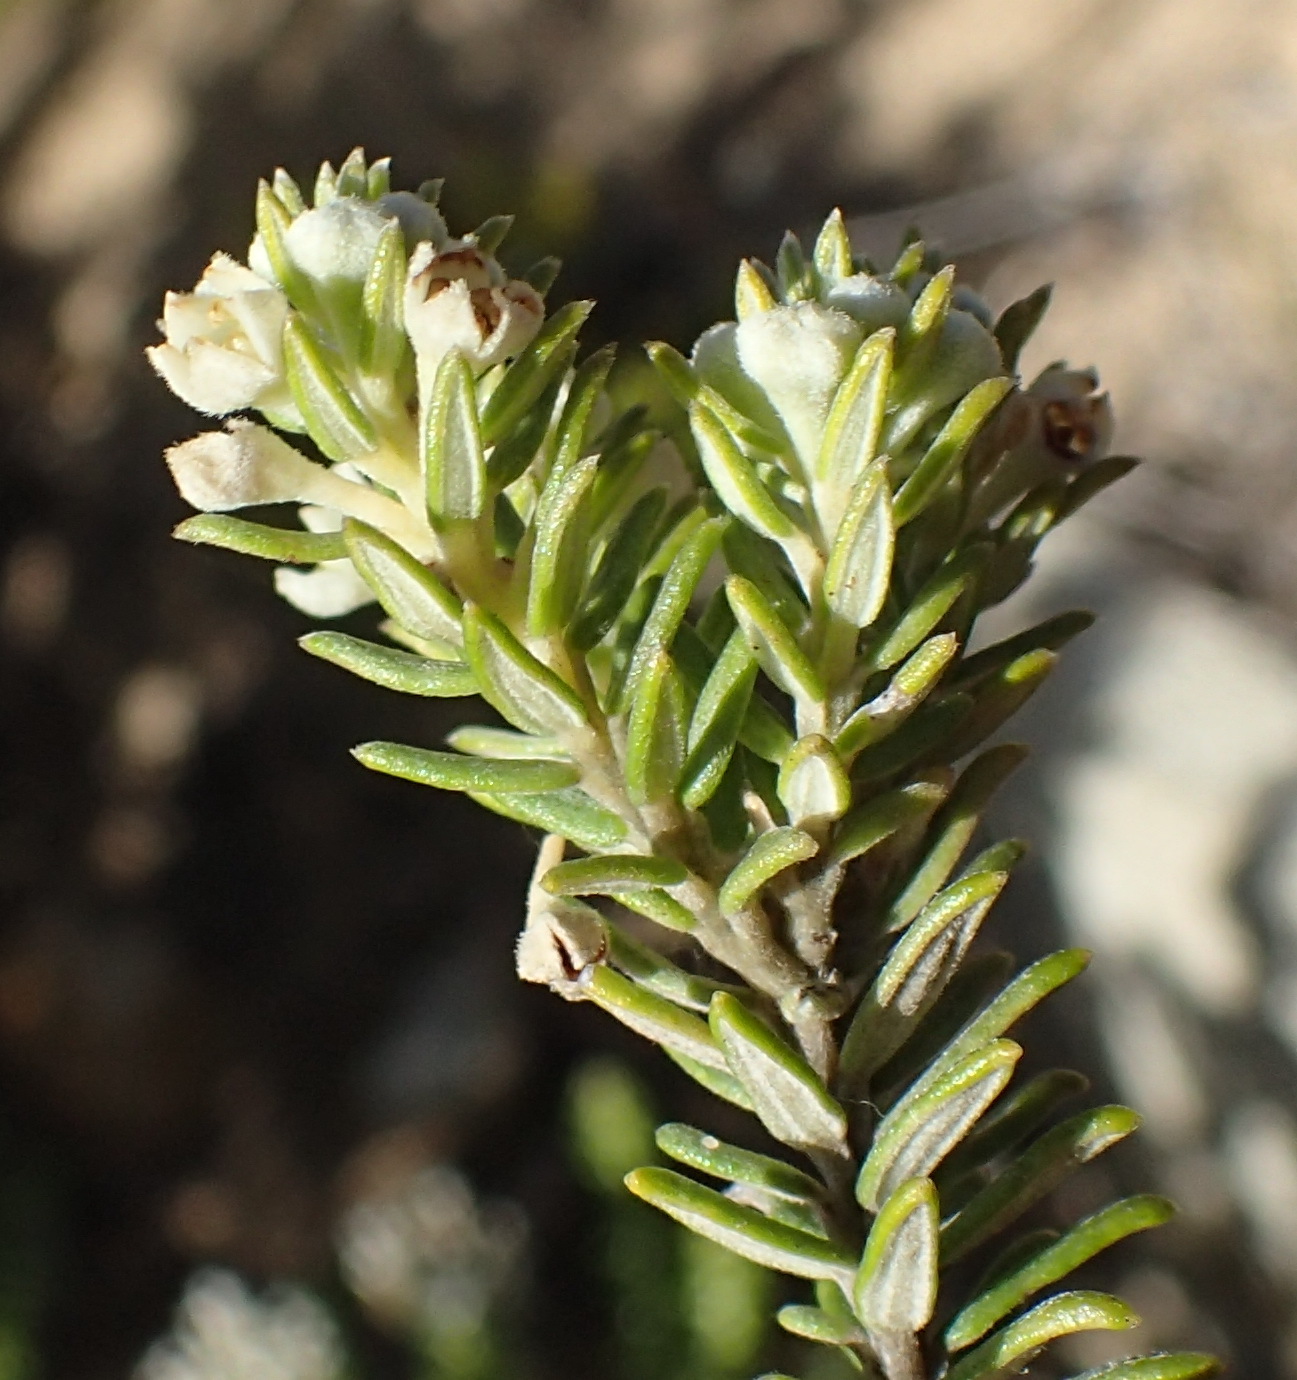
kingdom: Plantae
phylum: Tracheophyta
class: Magnoliopsida
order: Rosales
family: Rhamnaceae
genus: Phylica
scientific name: Phylica litoralis
